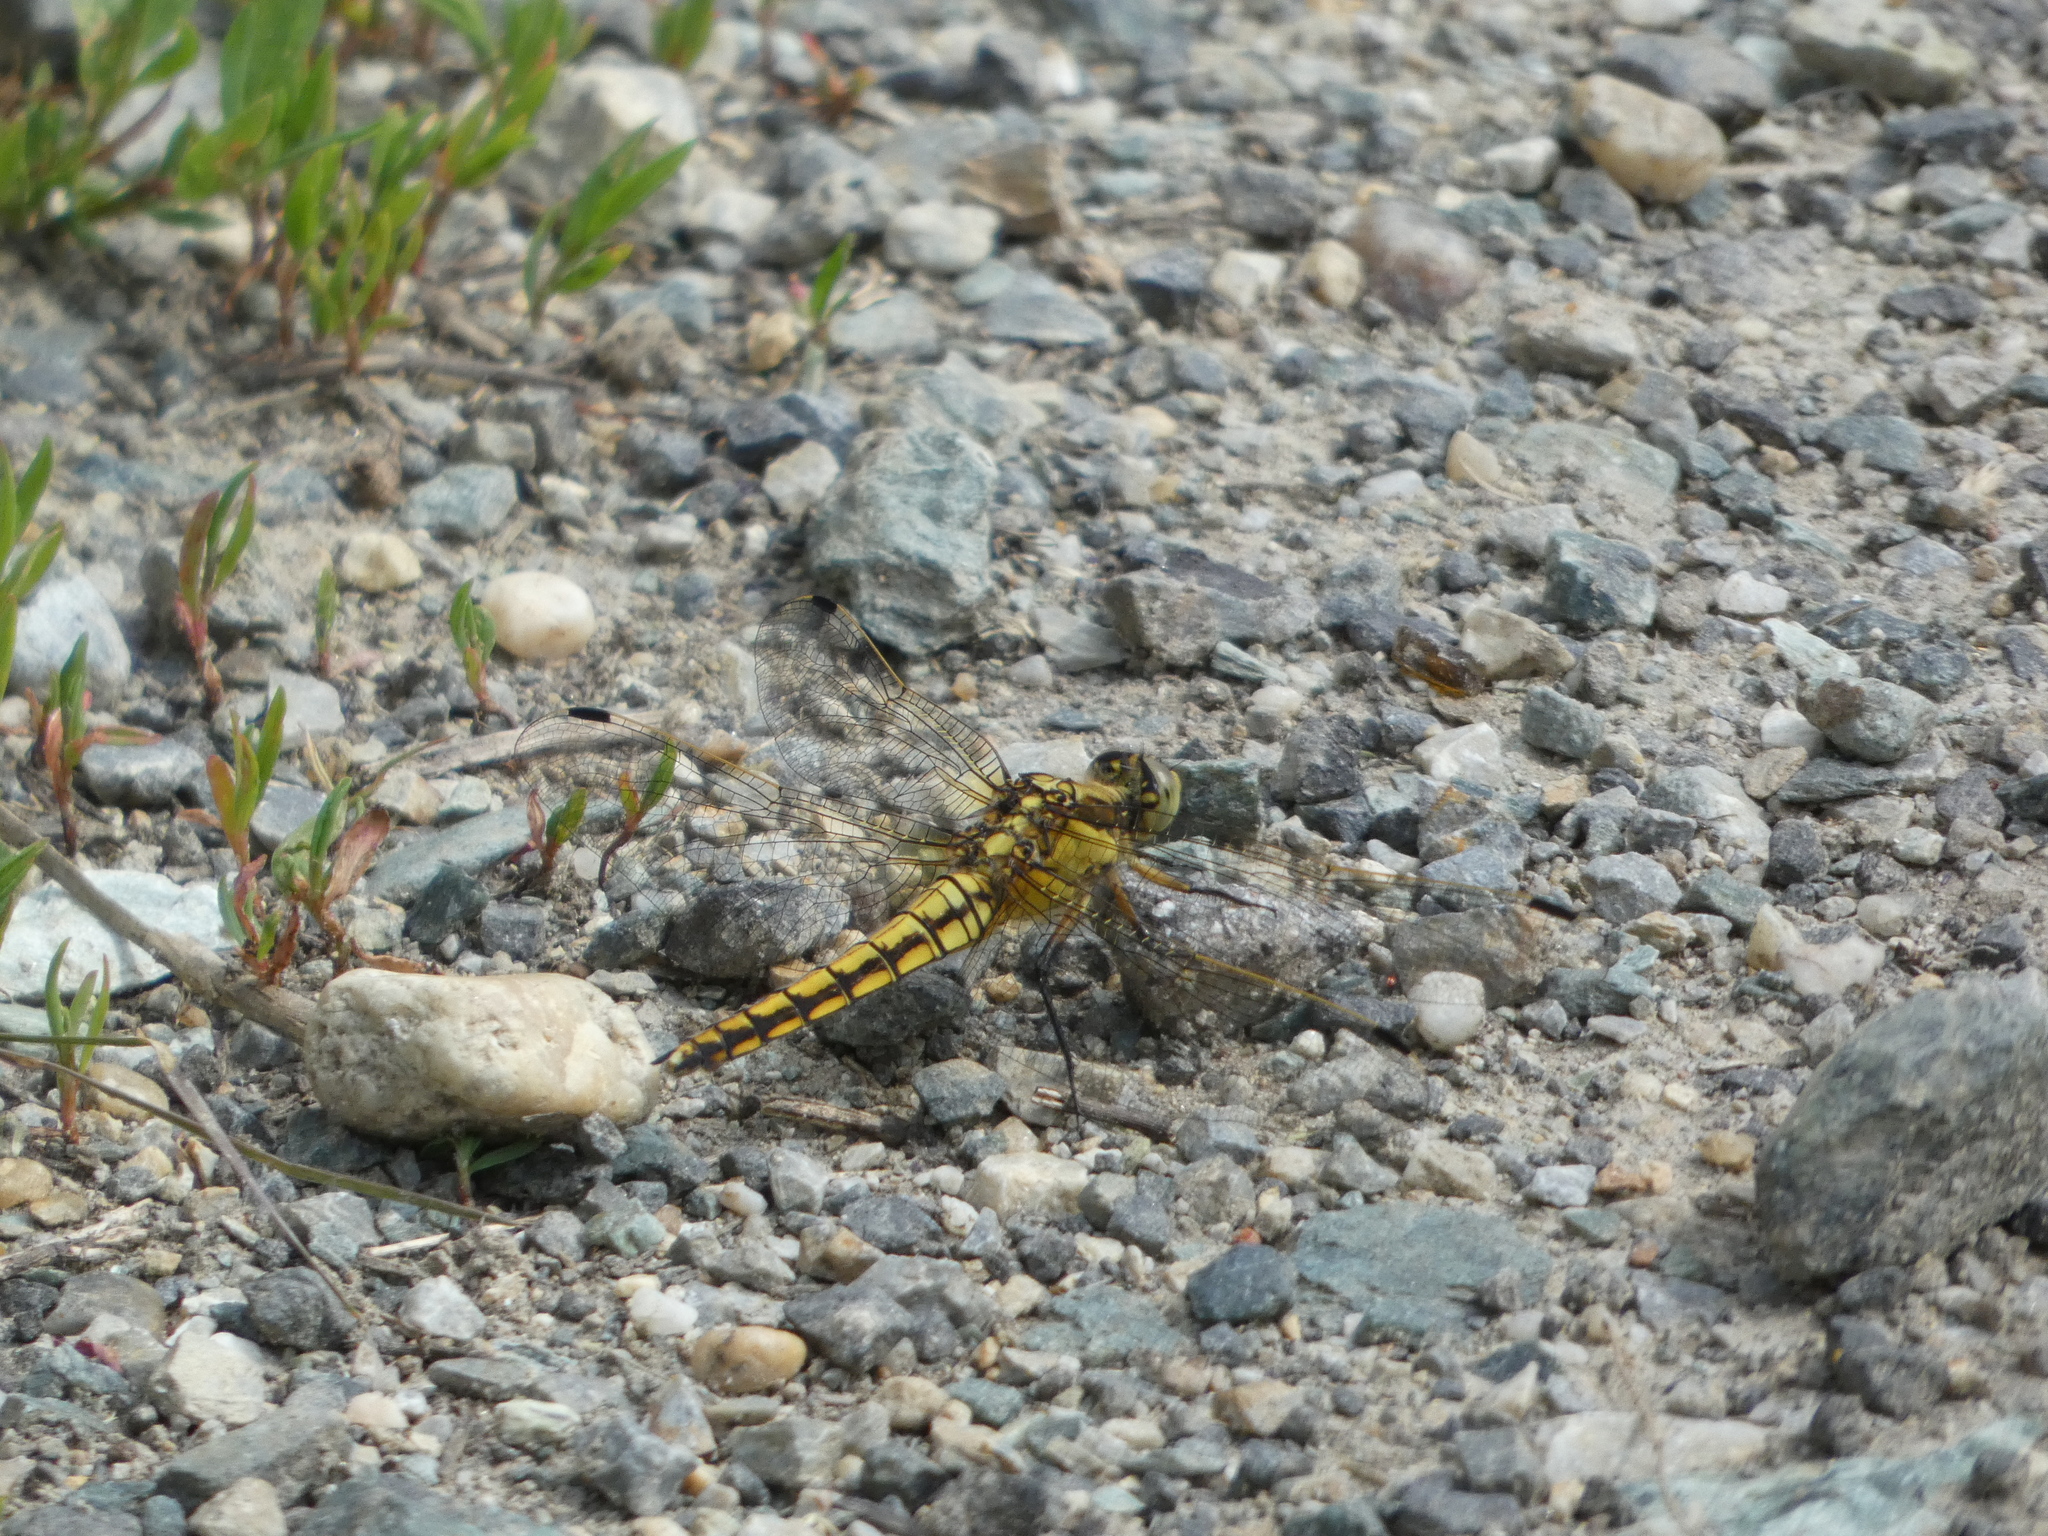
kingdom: Animalia
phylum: Arthropoda
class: Insecta
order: Odonata
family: Libellulidae
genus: Orthetrum
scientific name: Orthetrum cancellatum
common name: Black-tailed skimmer
